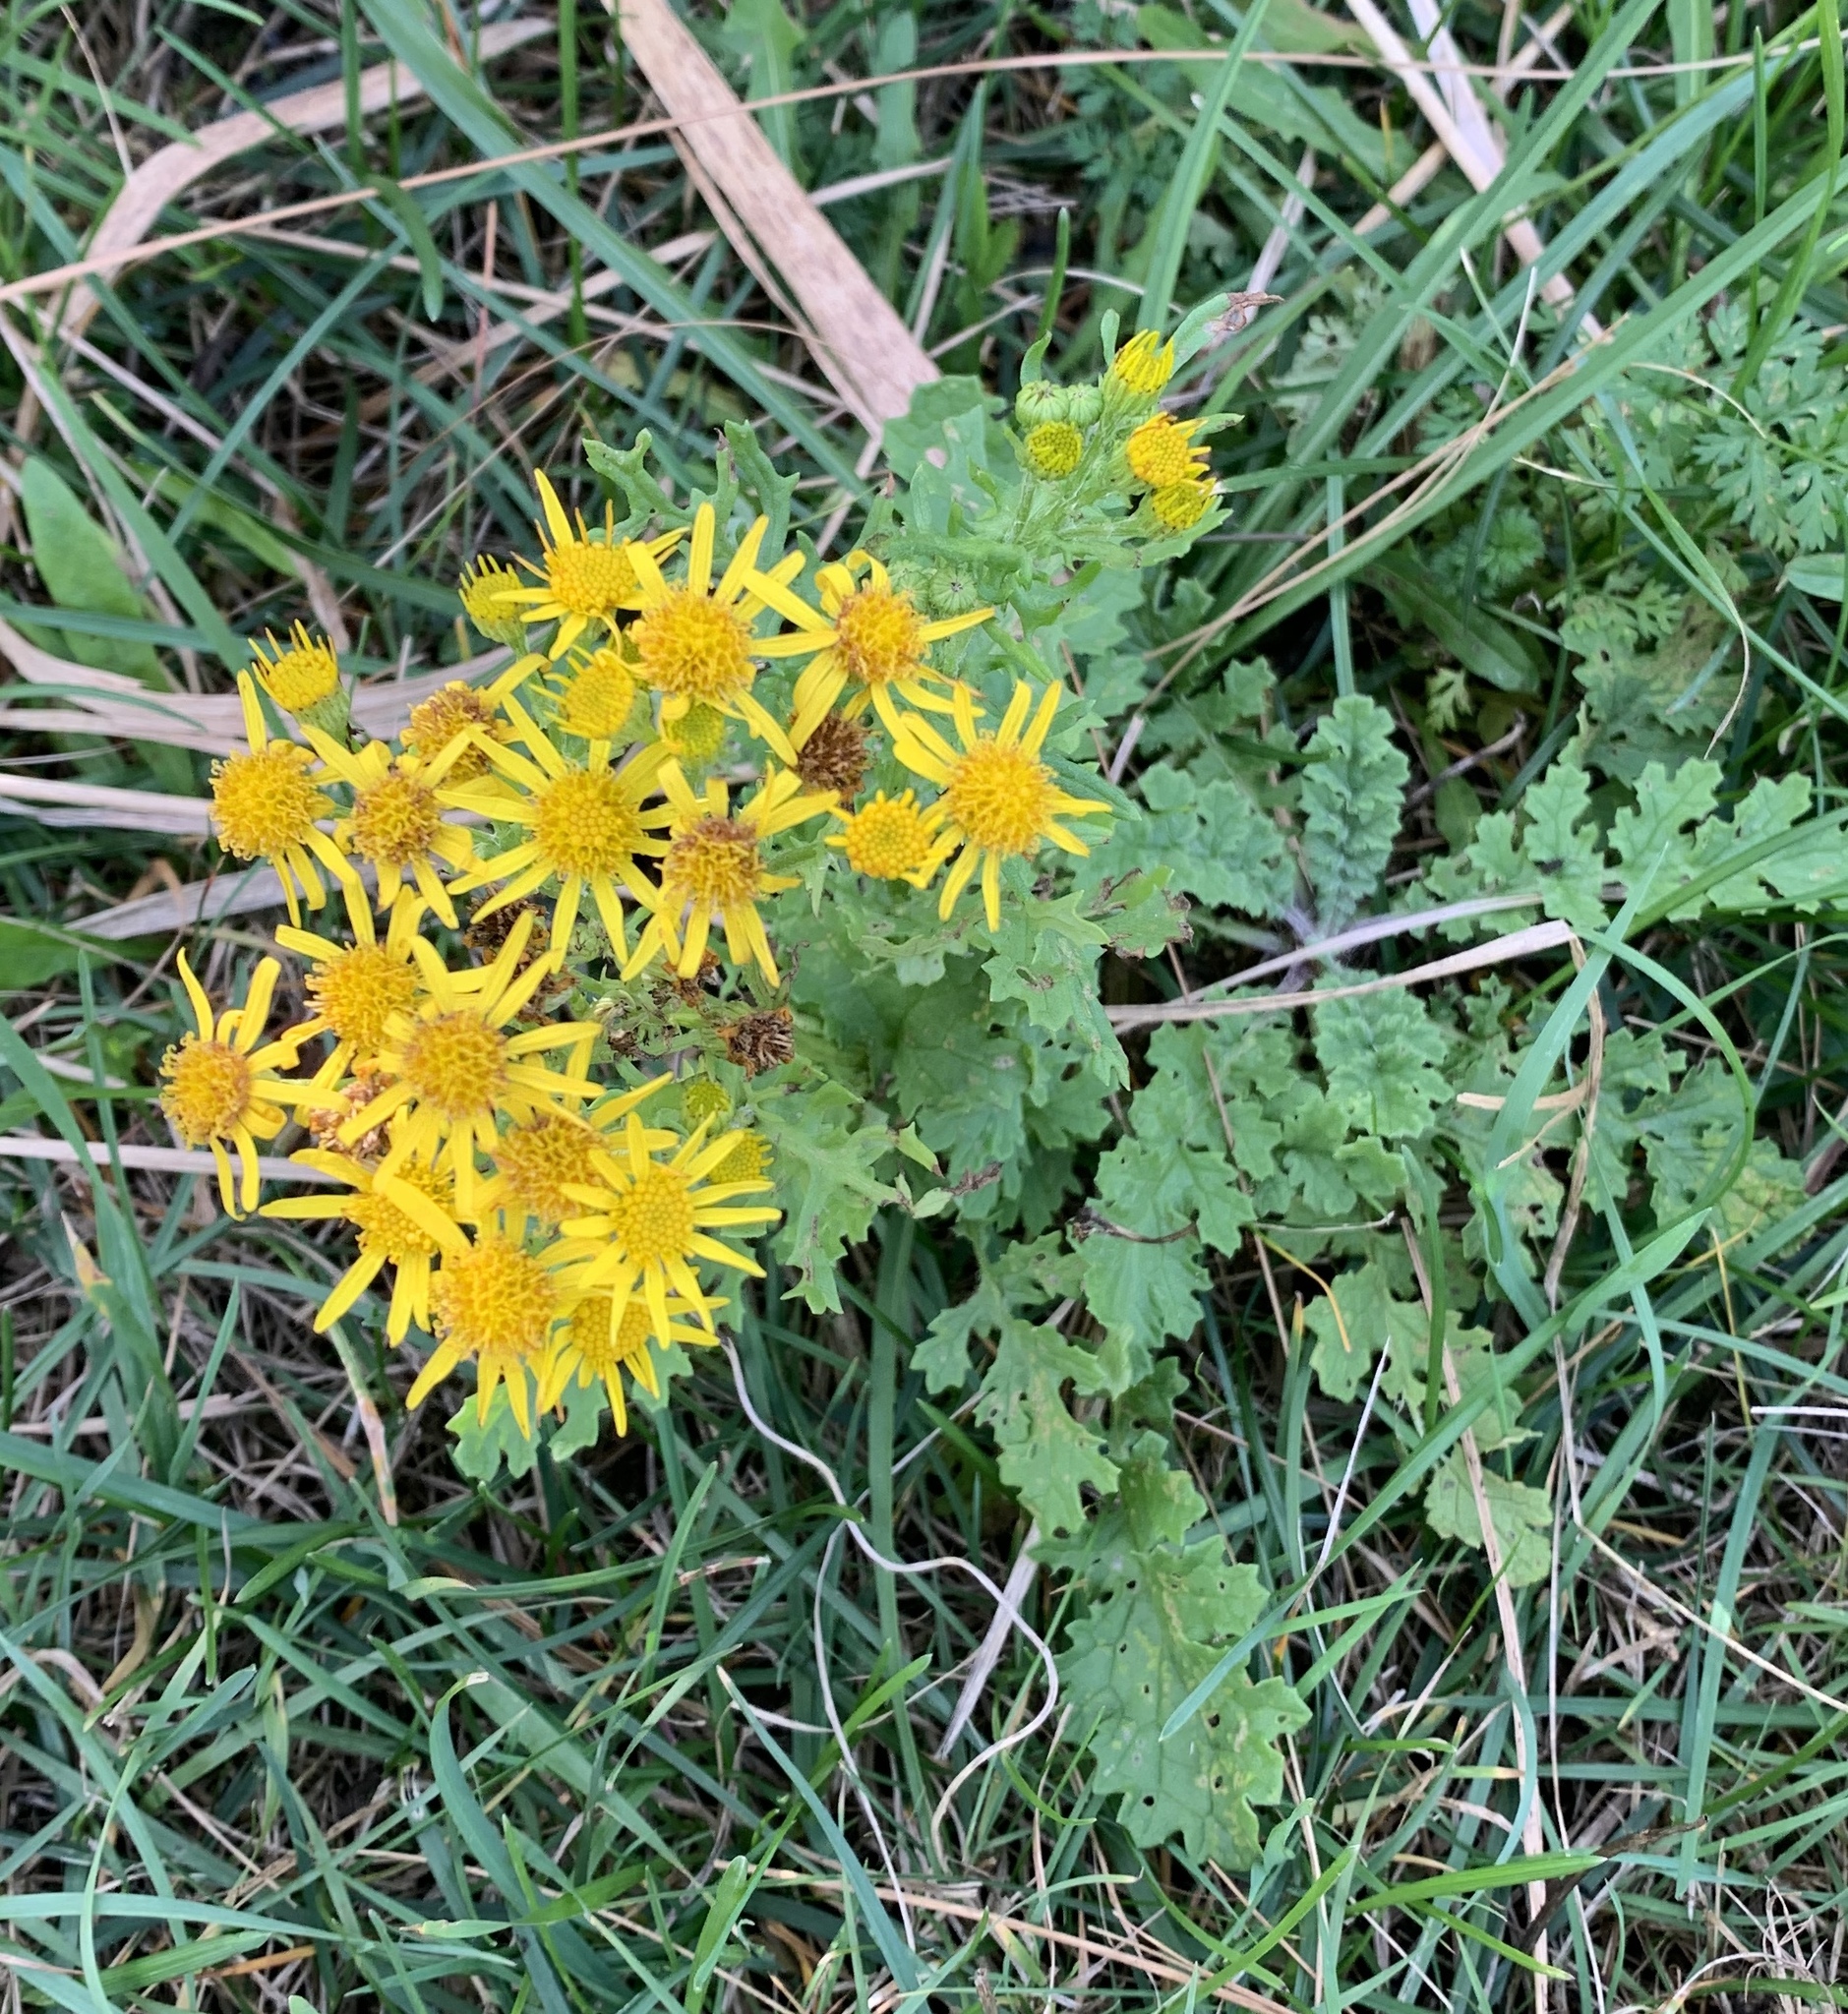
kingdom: Plantae
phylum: Tracheophyta
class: Magnoliopsida
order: Asterales
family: Asteraceae
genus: Jacobaea
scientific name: Jacobaea vulgaris
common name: Stinking willie
